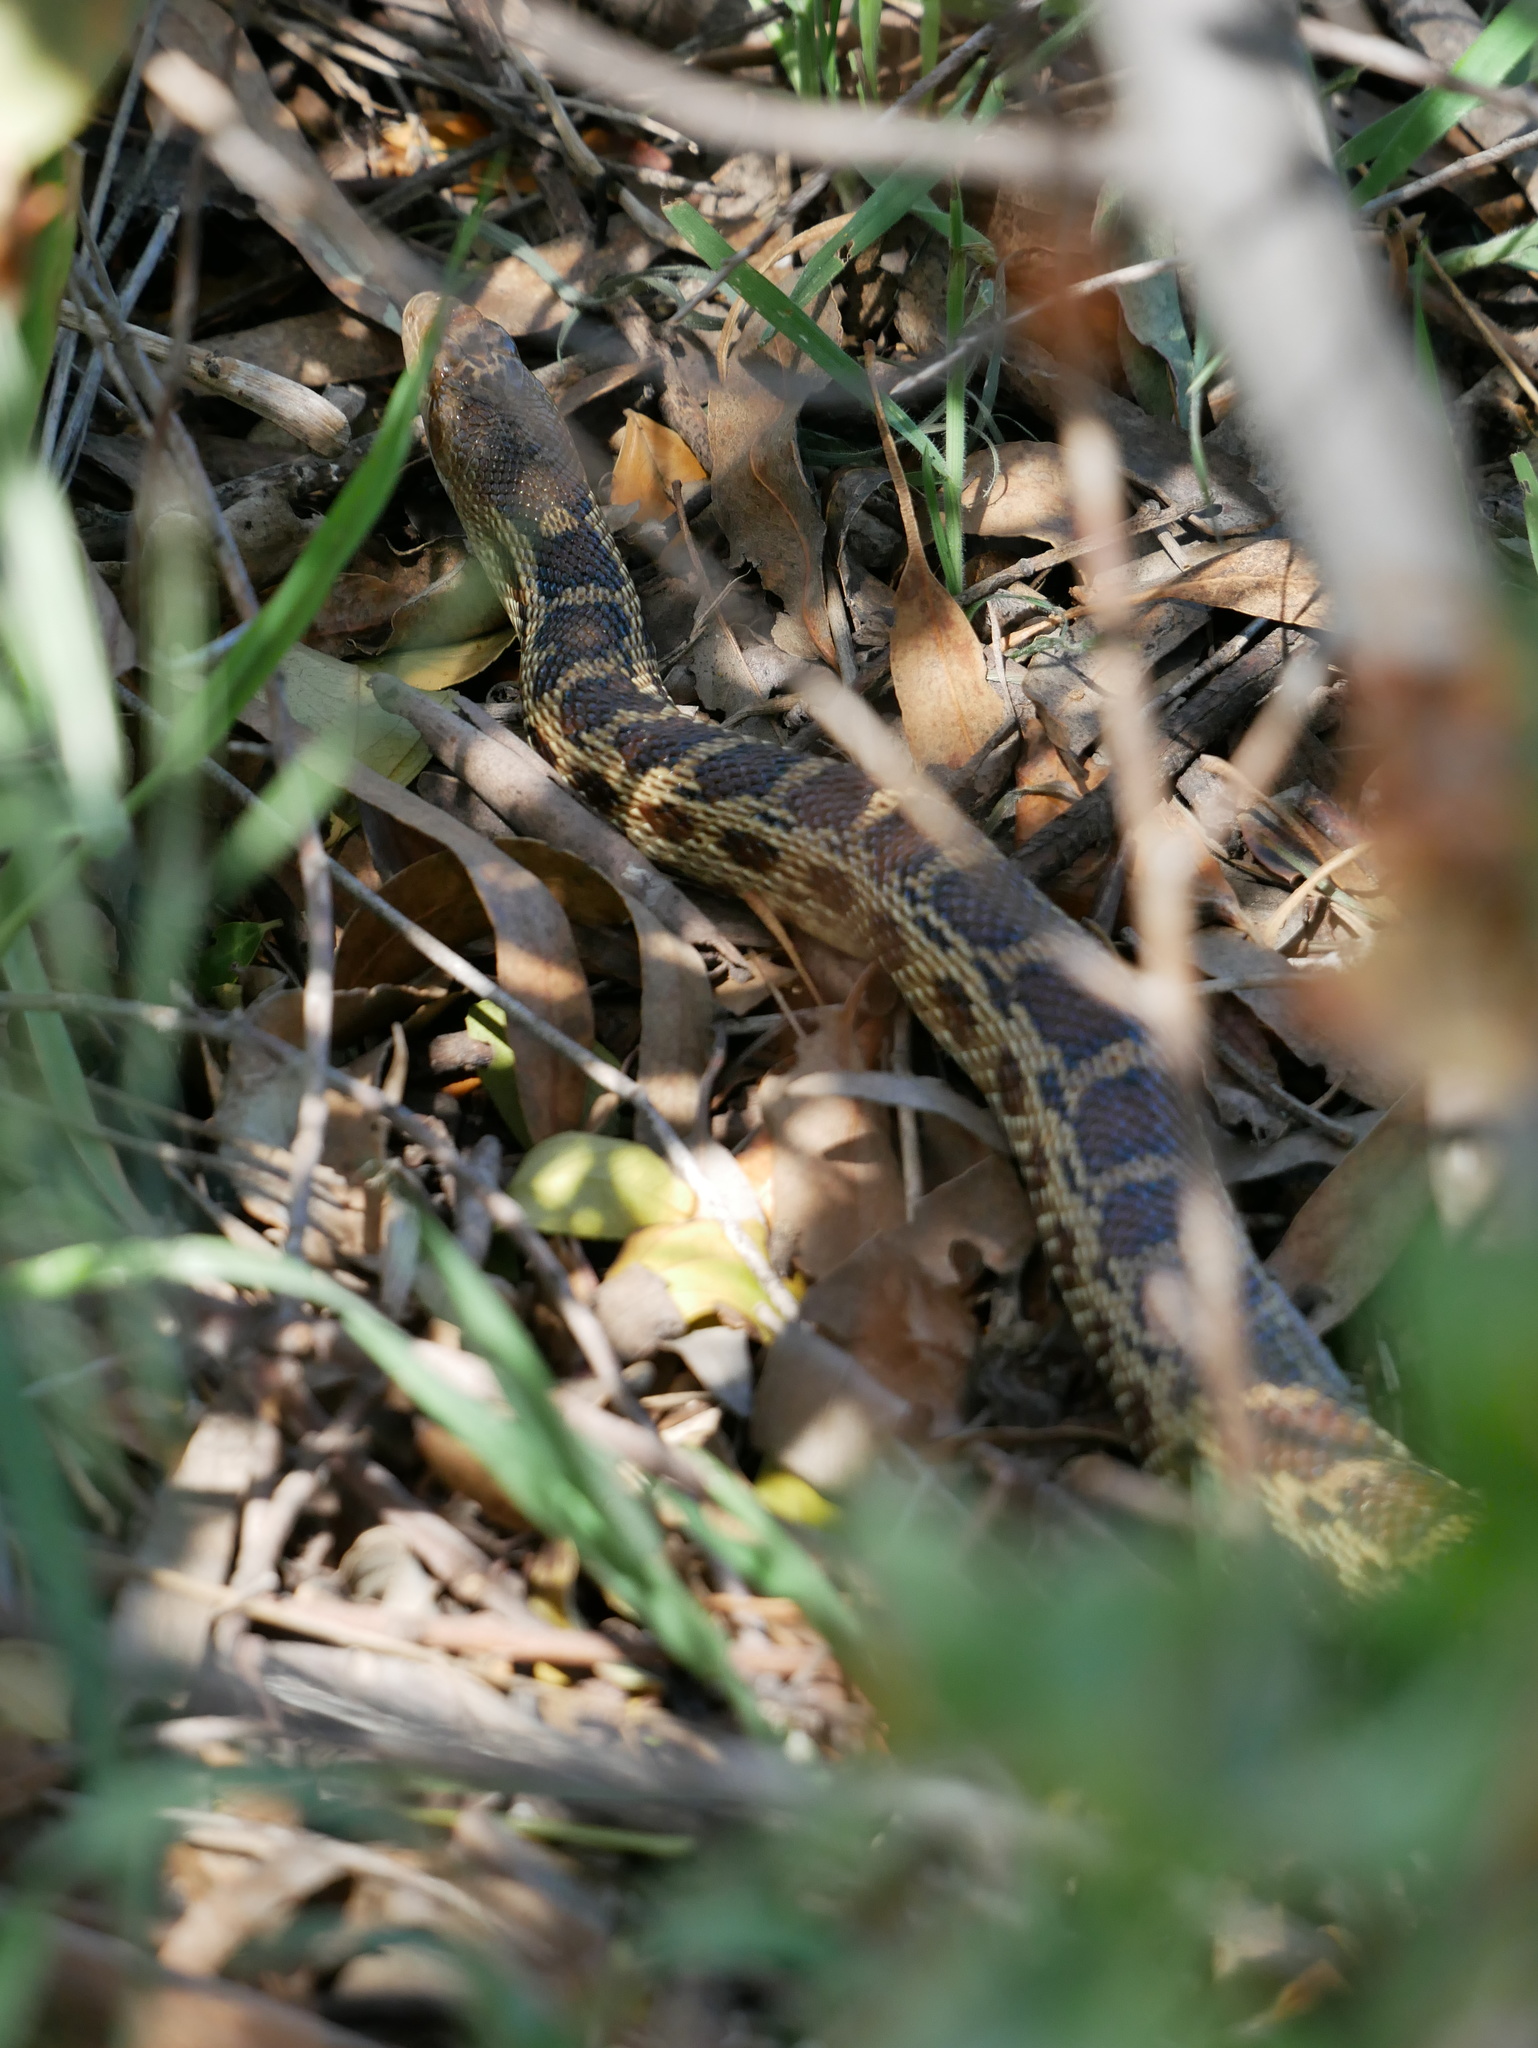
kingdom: Animalia
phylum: Chordata
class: Squamata
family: Colubridae
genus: Pituophis
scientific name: Pituophis catenifer
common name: Gopher snake
